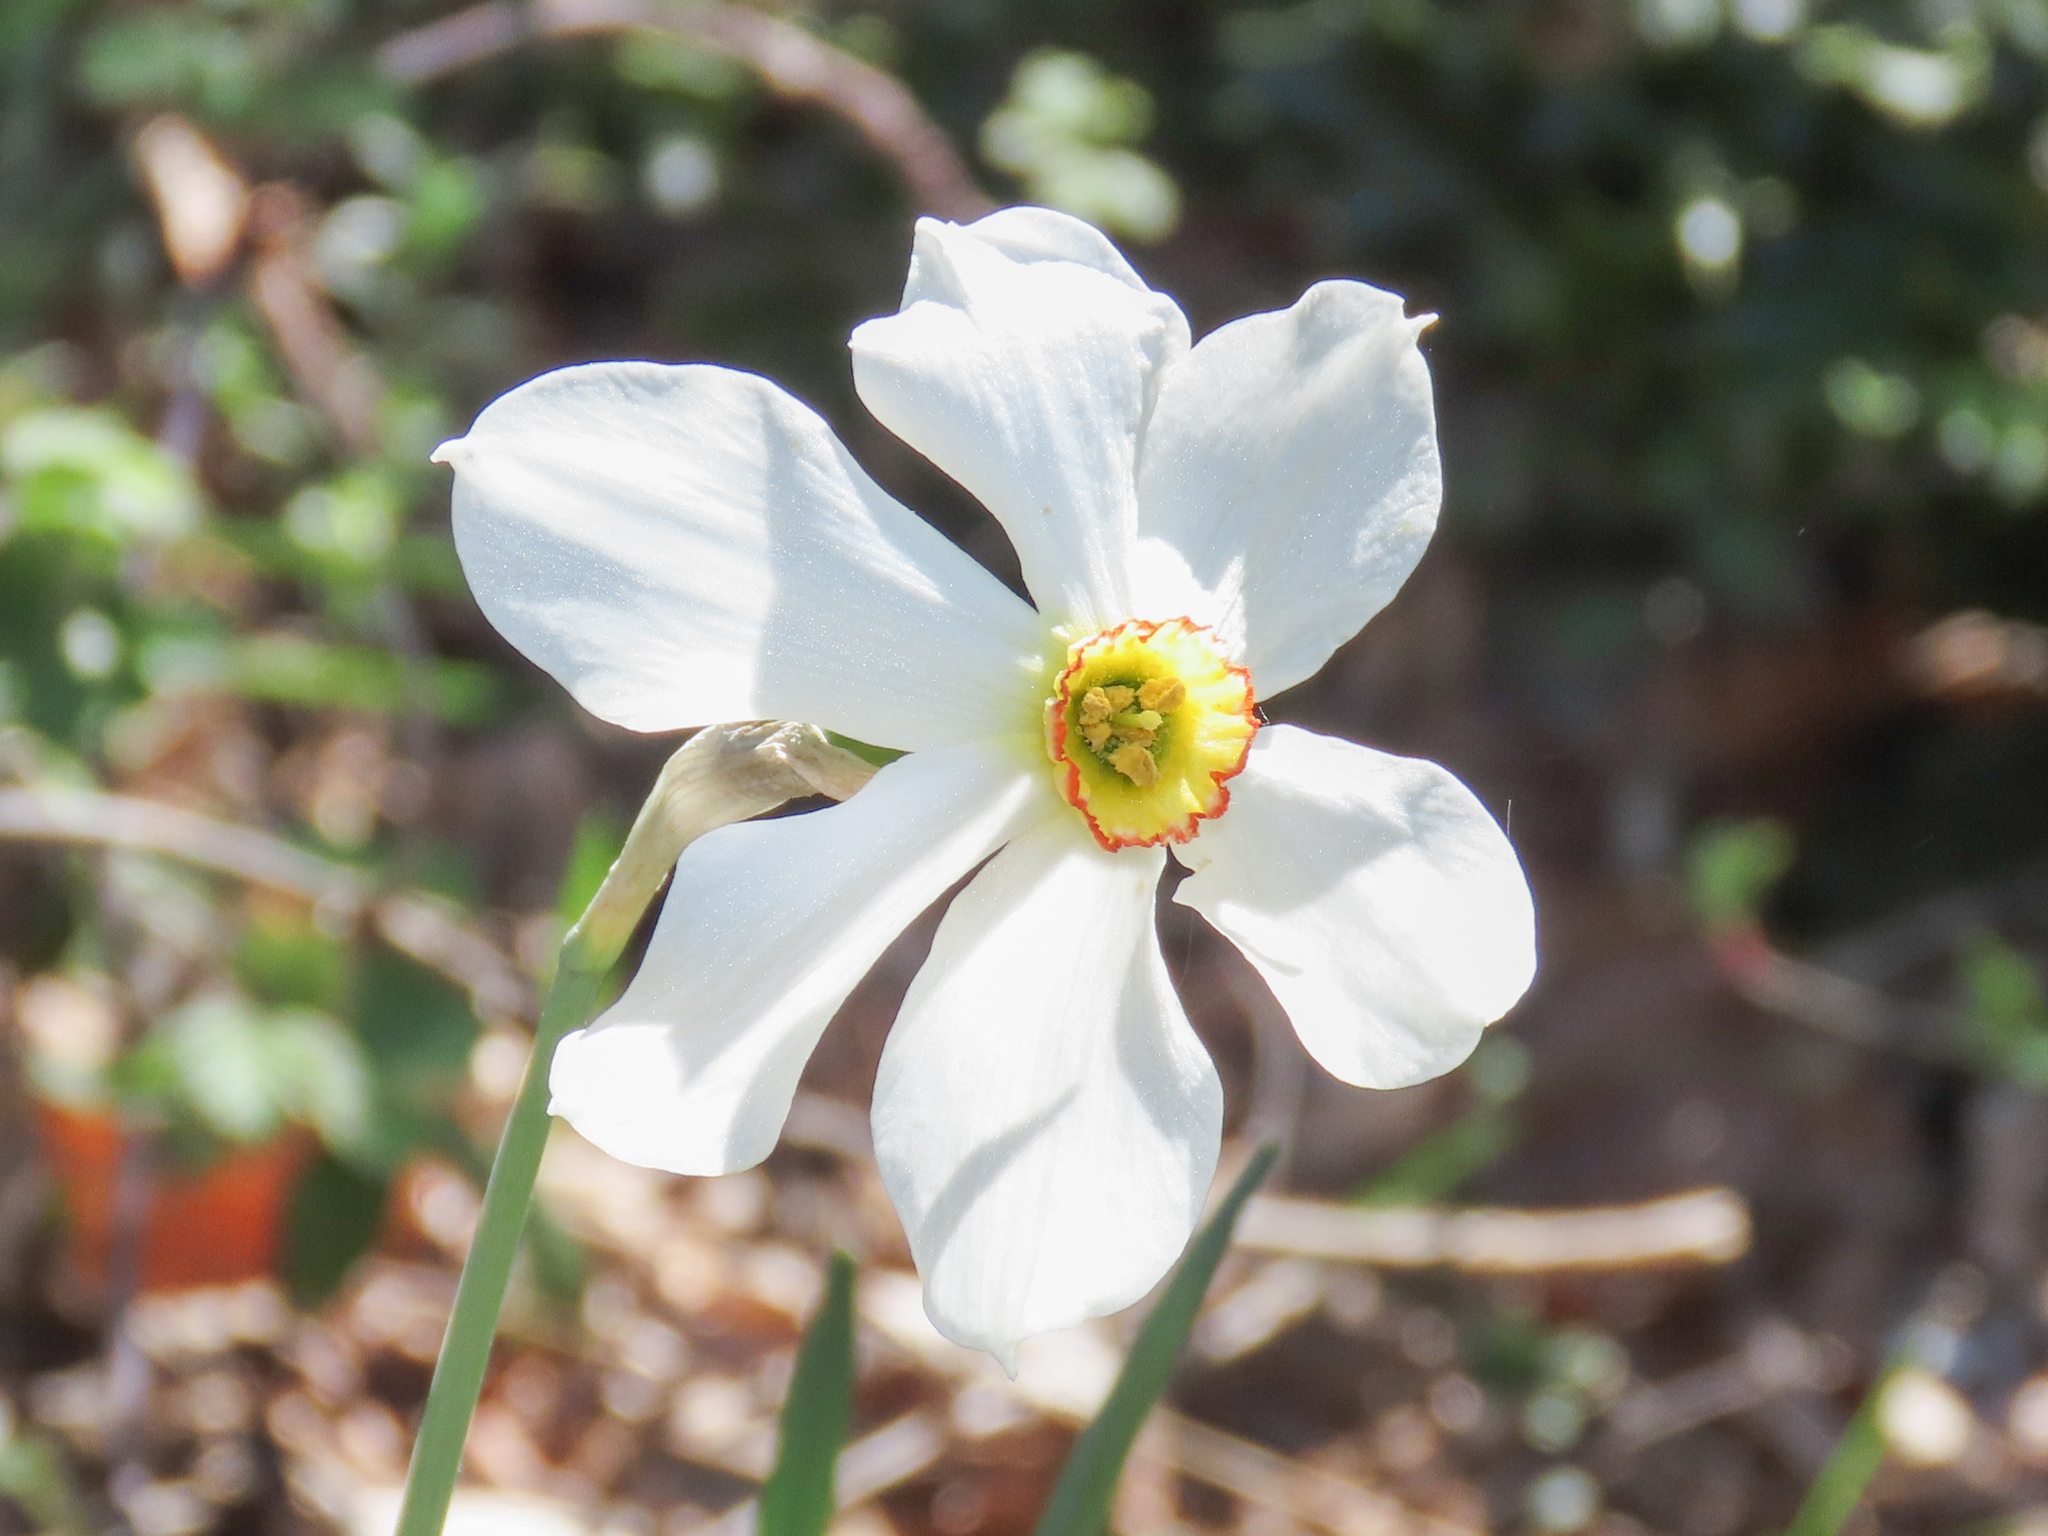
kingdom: Plantae
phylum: Tracheophyta
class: Liliopsida
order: Asparagales
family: Amaryllidaceae
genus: Narcissus
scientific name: Narcissus poeticus
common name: Pheasant's-eye daffodil
